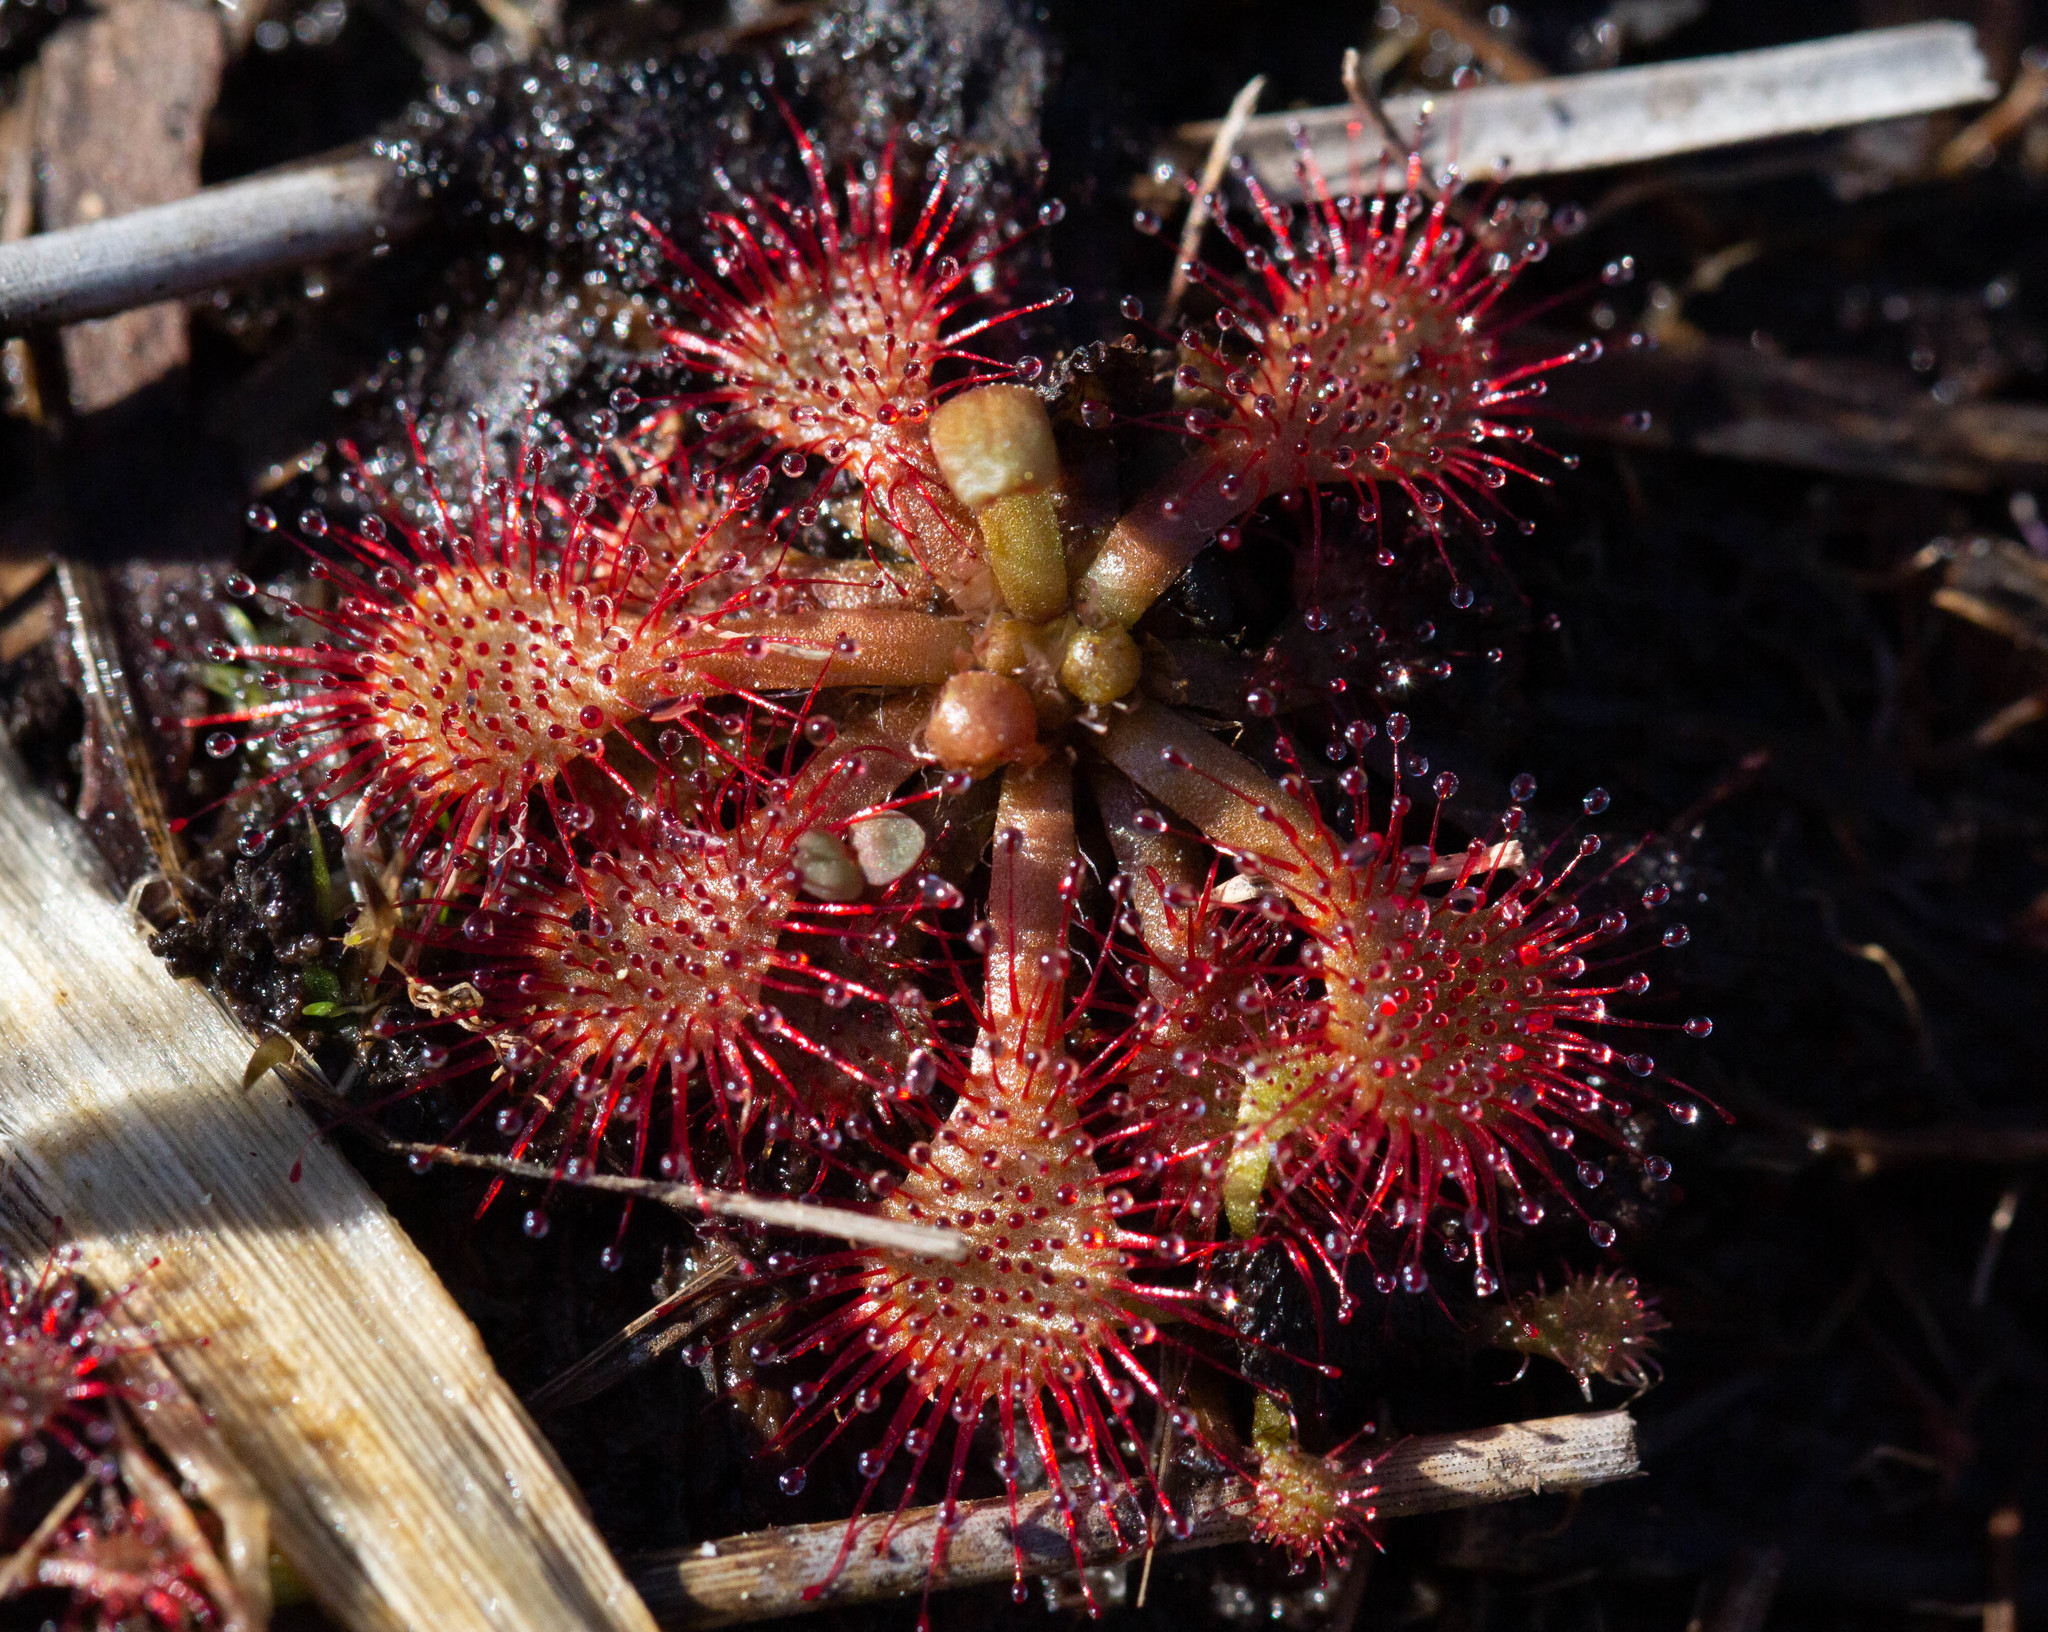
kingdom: Plantae
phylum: Tracheophyta
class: Magnoliopsida
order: Caryophyllales
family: Droseraceae
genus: Drosera
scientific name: Drosera capillaris
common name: Pink sundew
